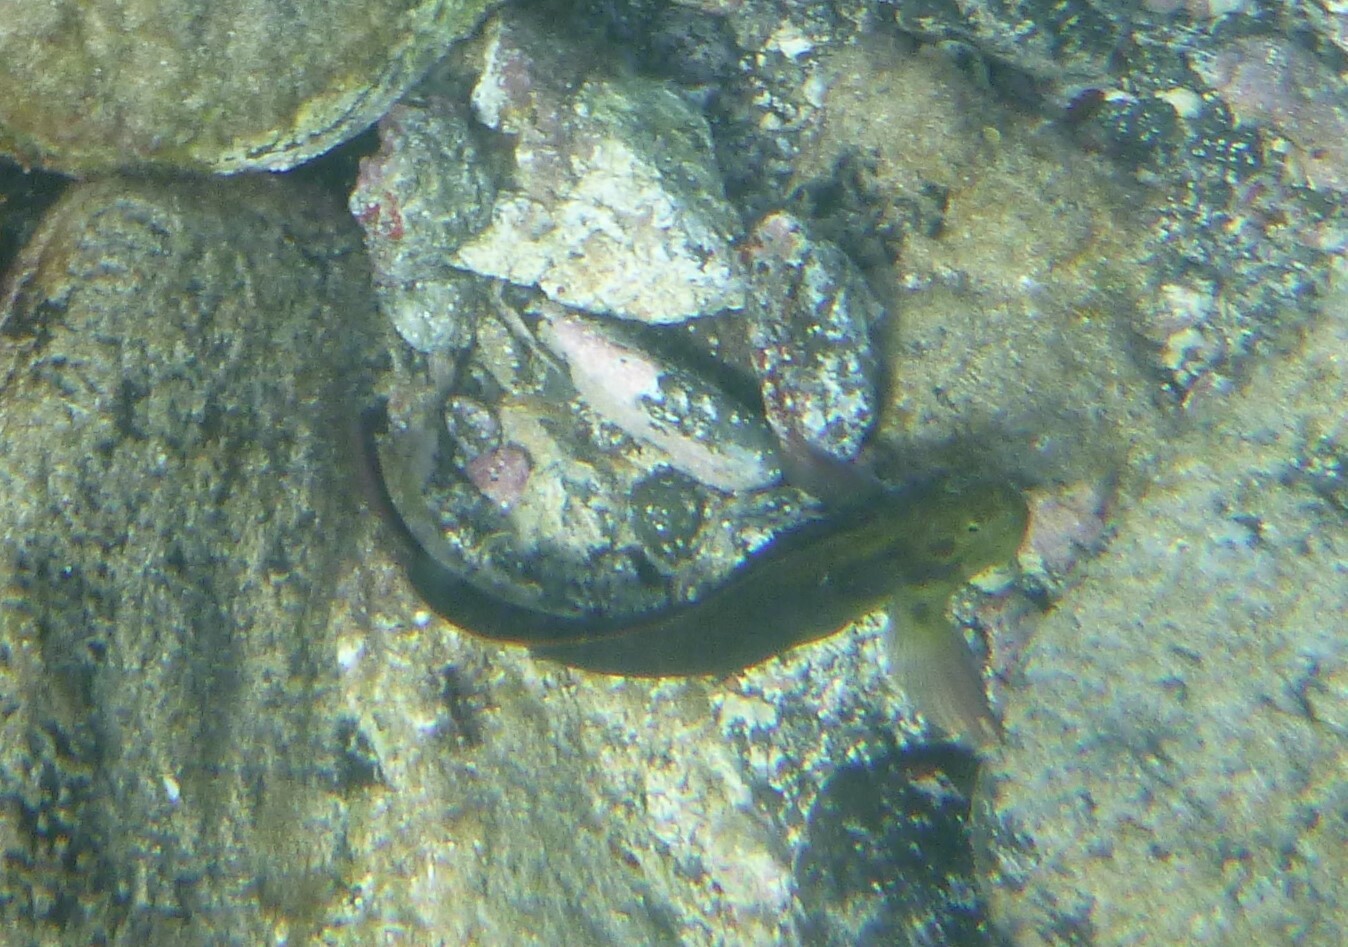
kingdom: Animalia
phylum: Chordata
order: Perciformes
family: Blenniidae
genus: Ophioblennius
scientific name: Ophioblennius atlanticus
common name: Redlip blenny
